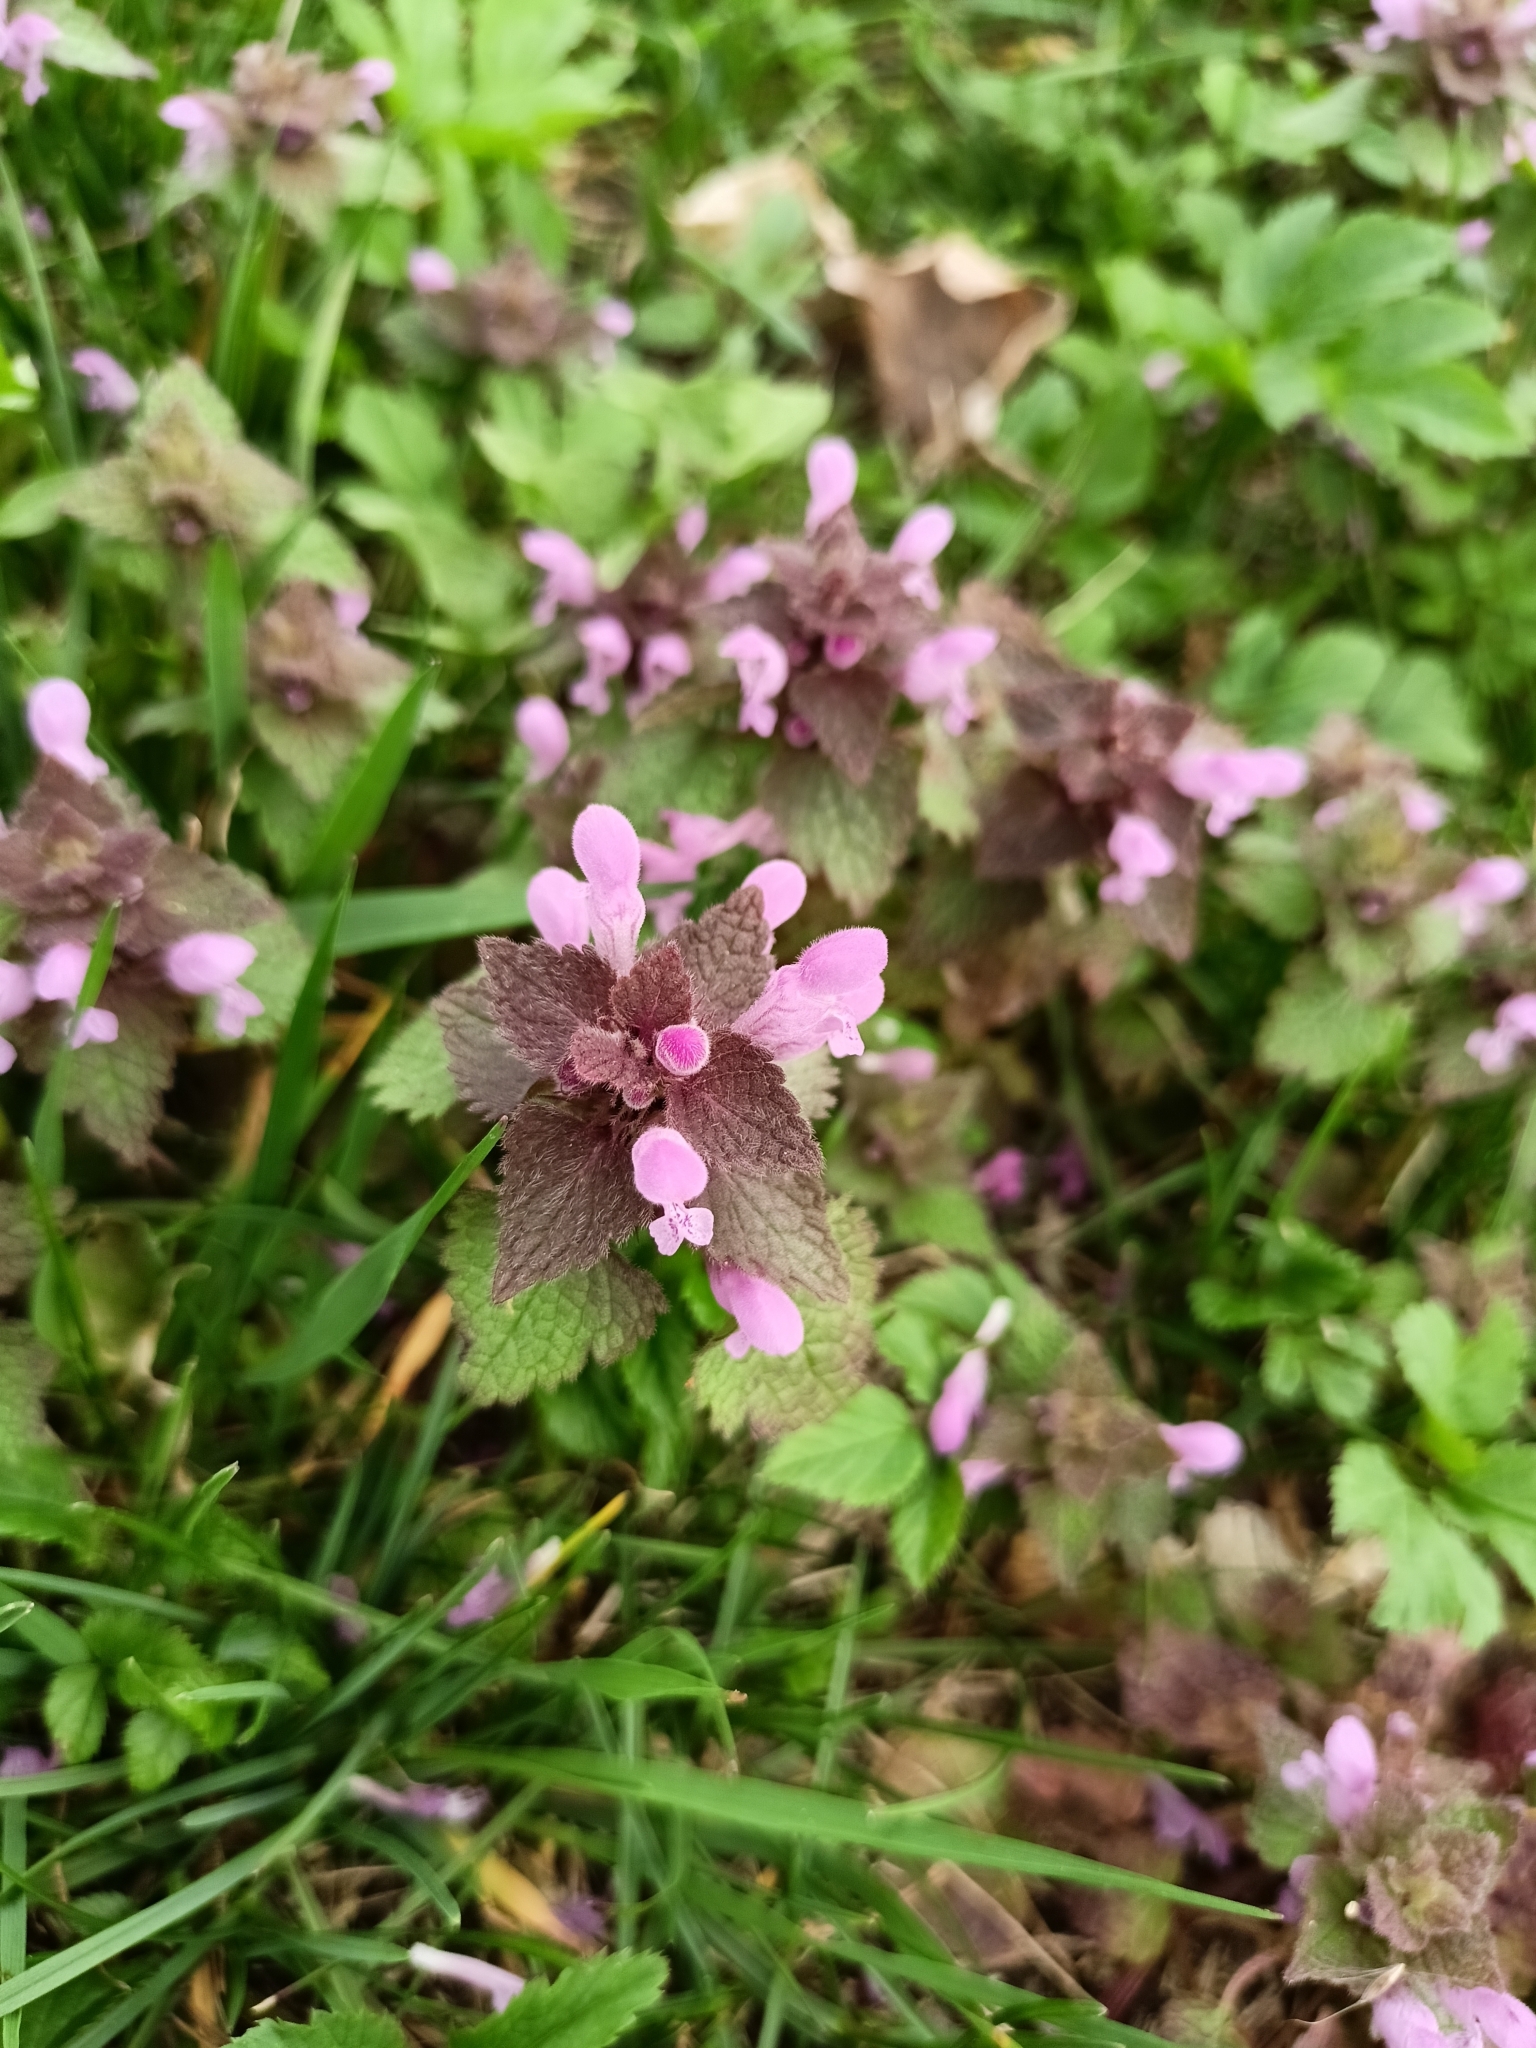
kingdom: Plantae
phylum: Tracheophyta
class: Magnoliopsida
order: Lamiales
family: Lamiaceae
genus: Lamium
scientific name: Lamium purpureum
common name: Red dead-nettle
